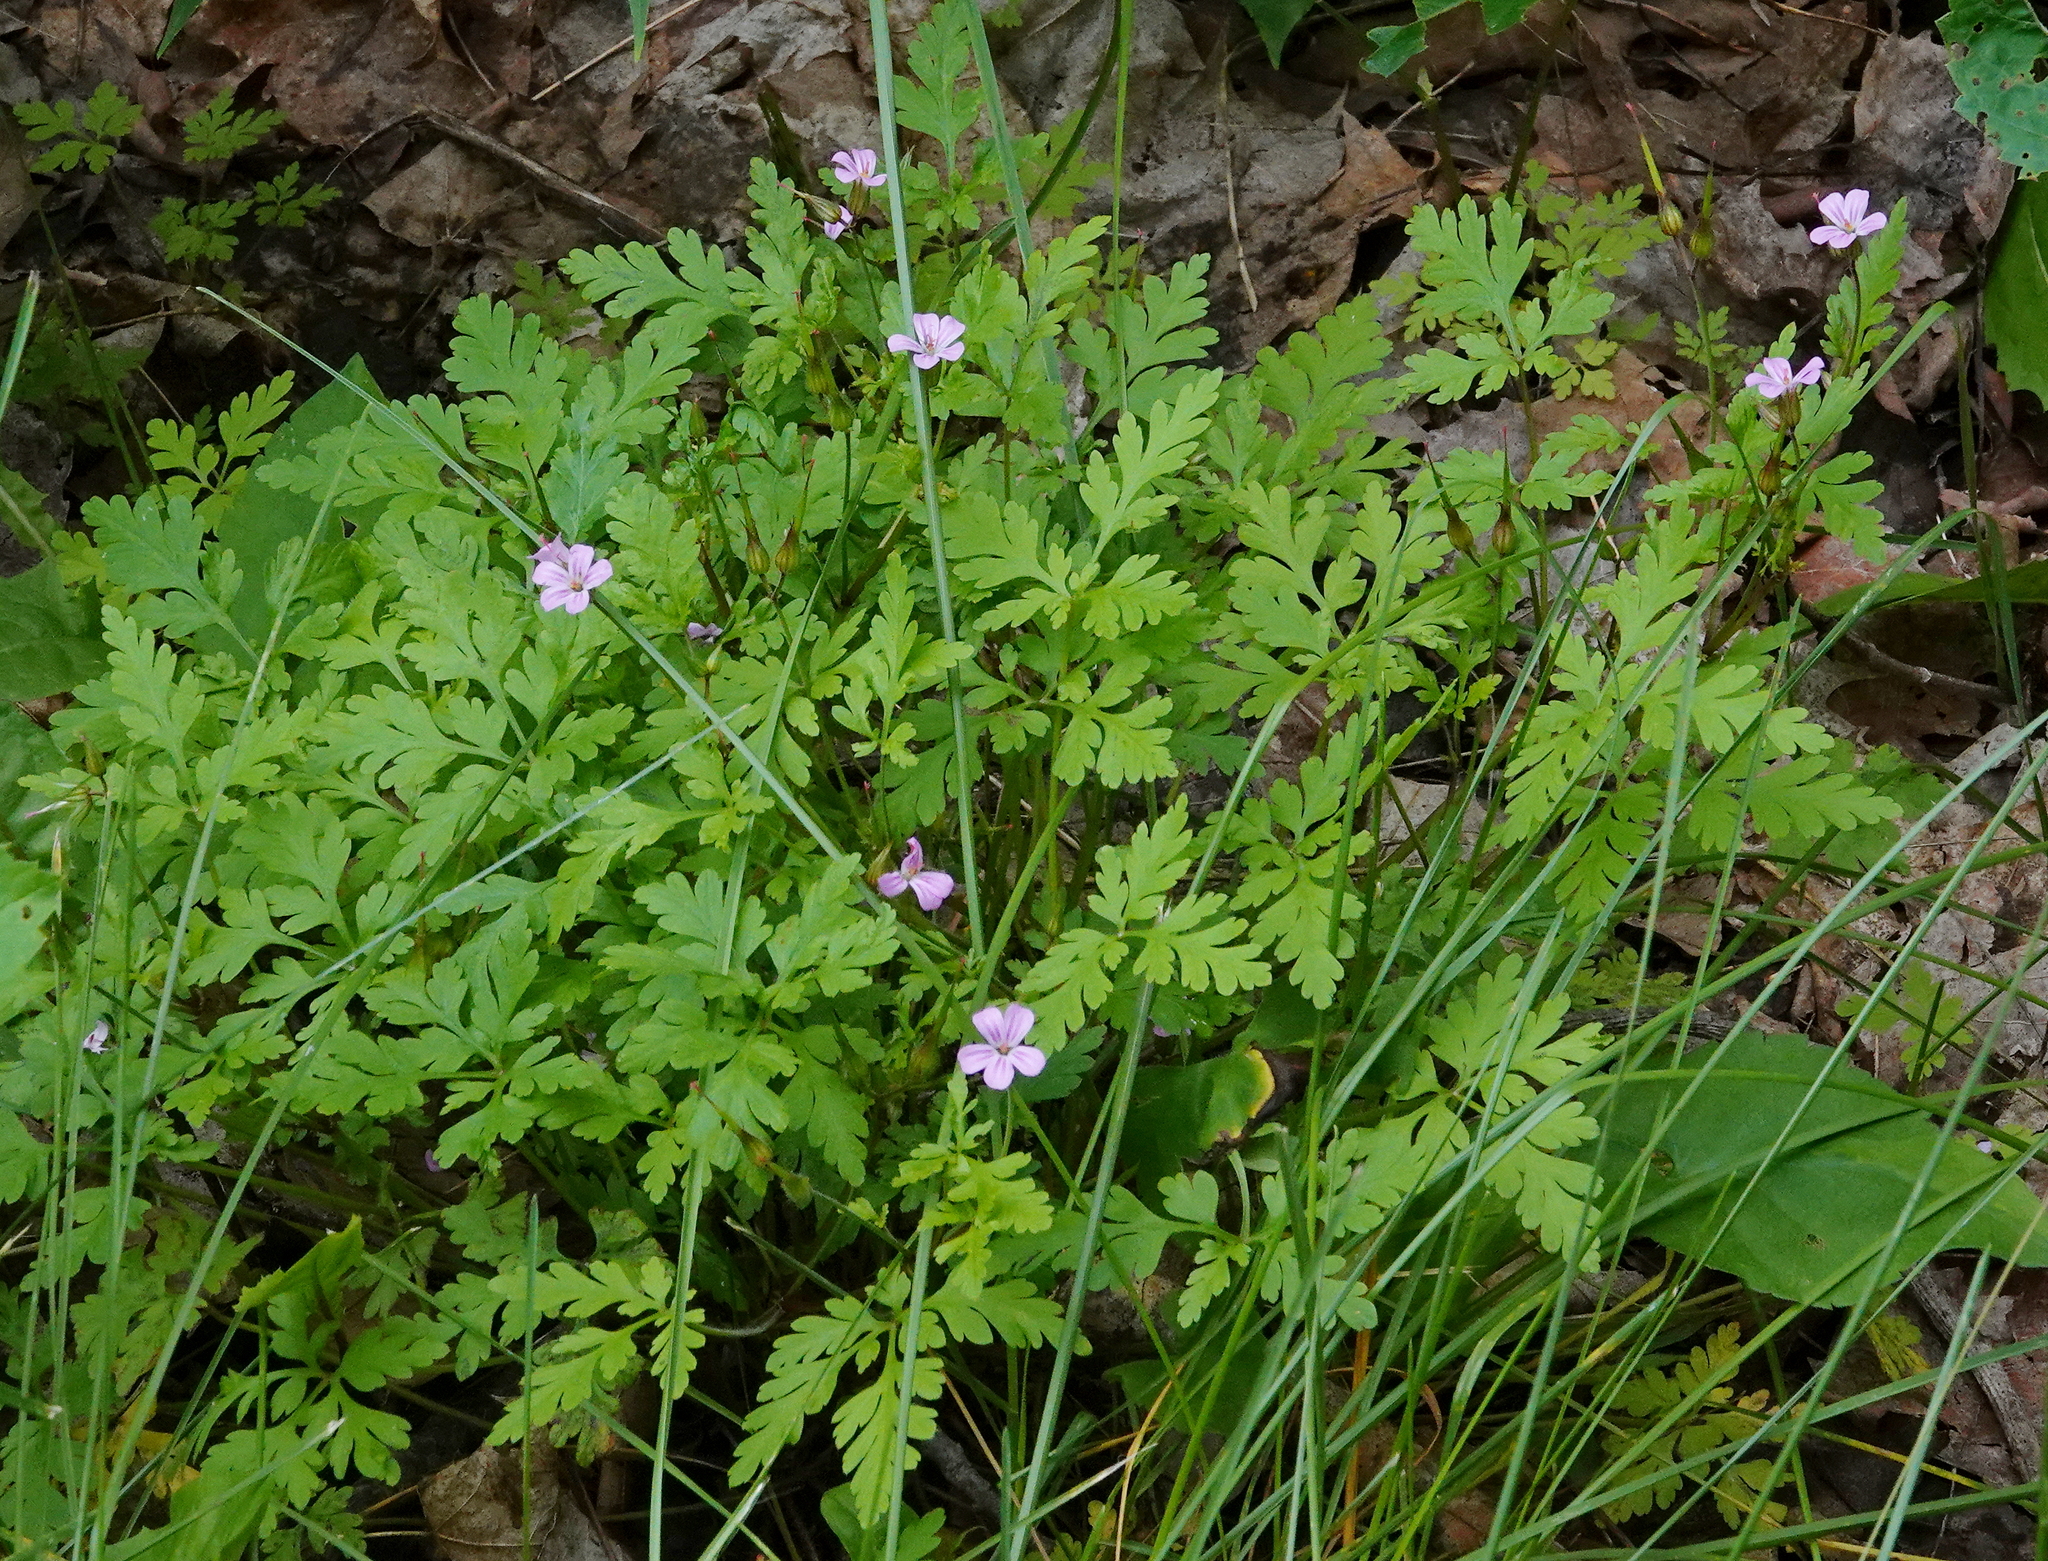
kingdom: Plantae
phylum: Tracheophyta
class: Magnoliopsida
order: Geraniales
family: Geraniaceae
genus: Geranium
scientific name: Geranium robertianum
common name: Herb-robert
